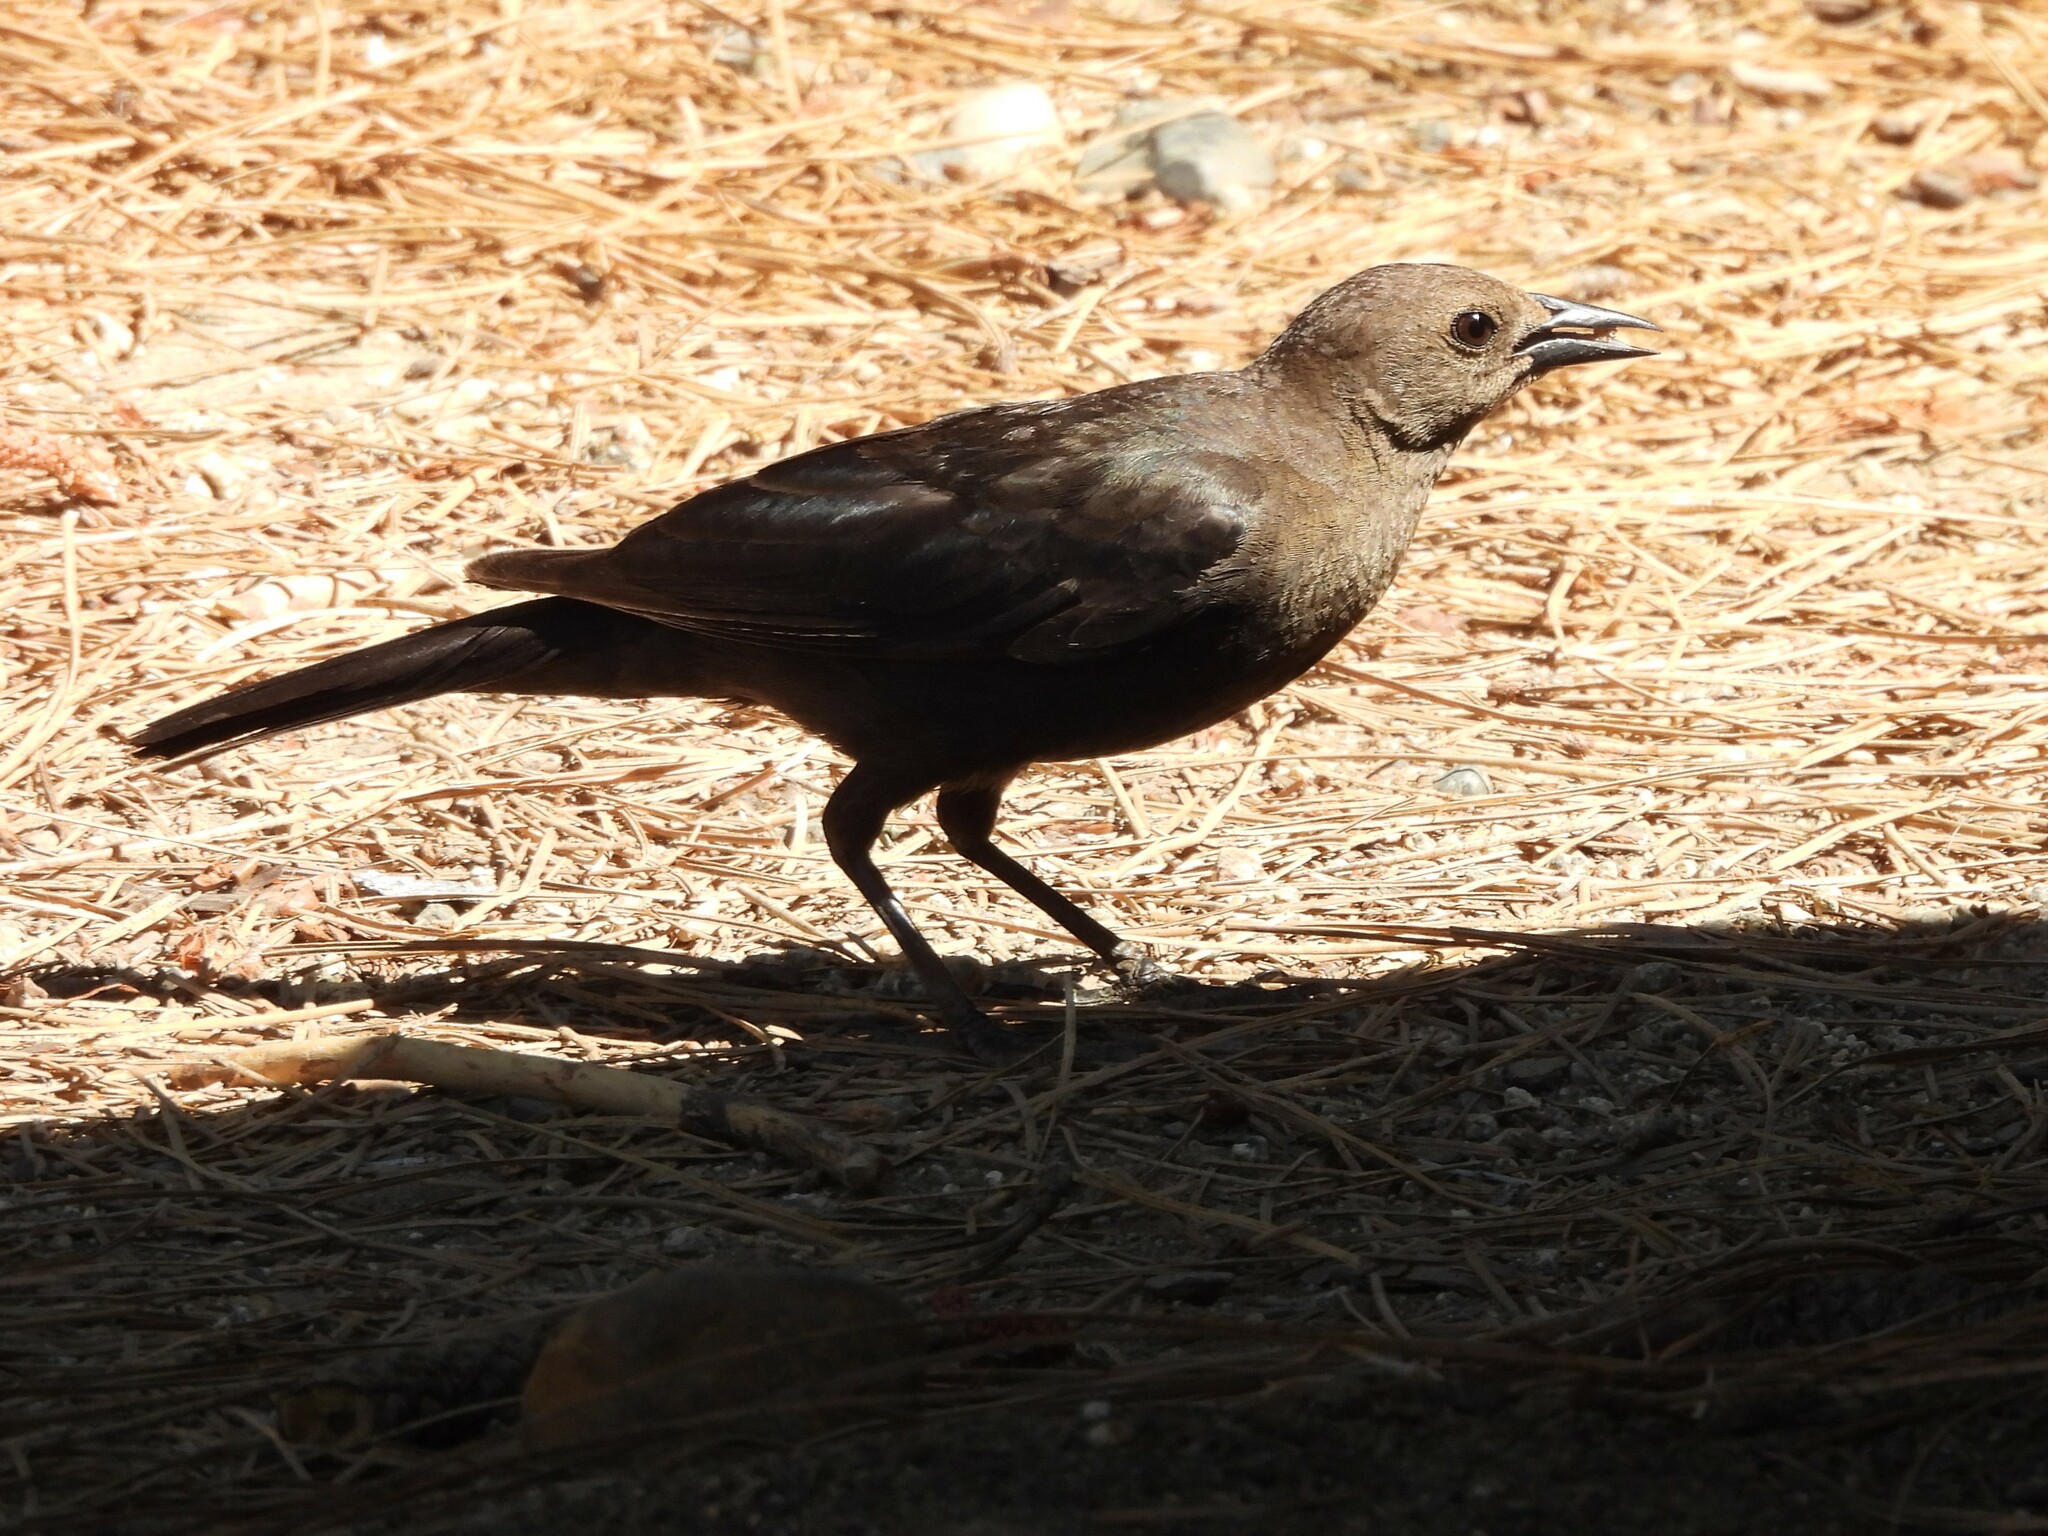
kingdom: Animalia
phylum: Chordata
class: Aves
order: Passeriformes
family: Icteridae
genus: Euphagus
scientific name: Euphagus cyanocephalus
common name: Brewer's blackbird
